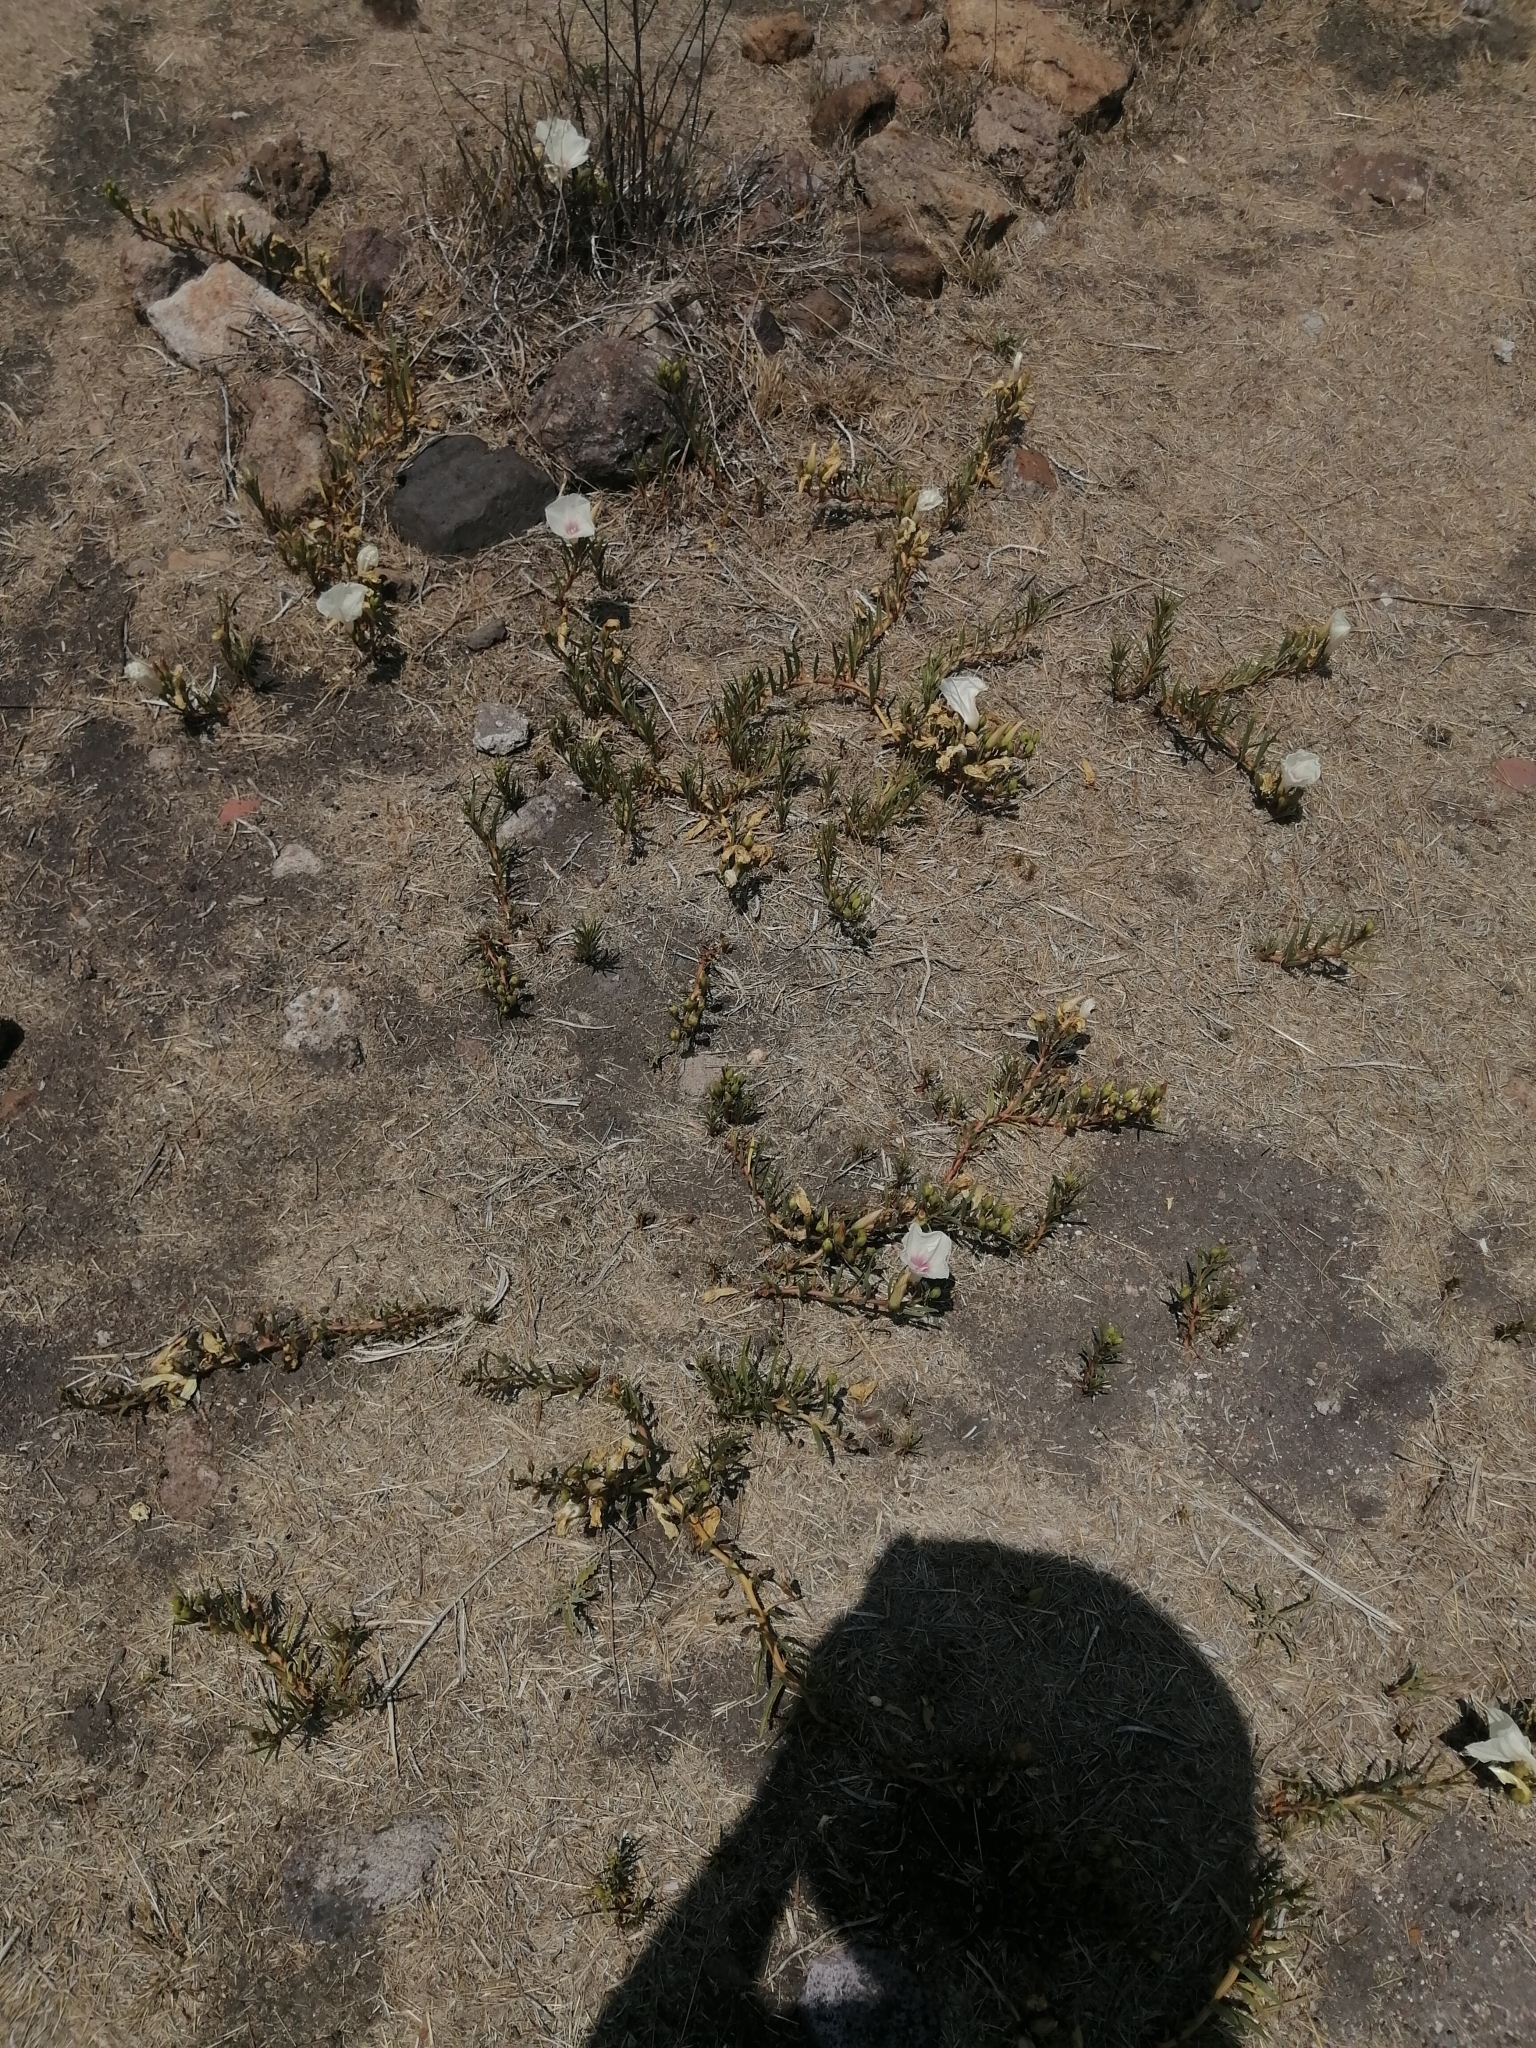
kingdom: Plantae
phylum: Tracheophyta
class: Magnoliopsida
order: Solanales
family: Convolvulaceae
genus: Ipomoea
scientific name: Ipomoea longifolia
